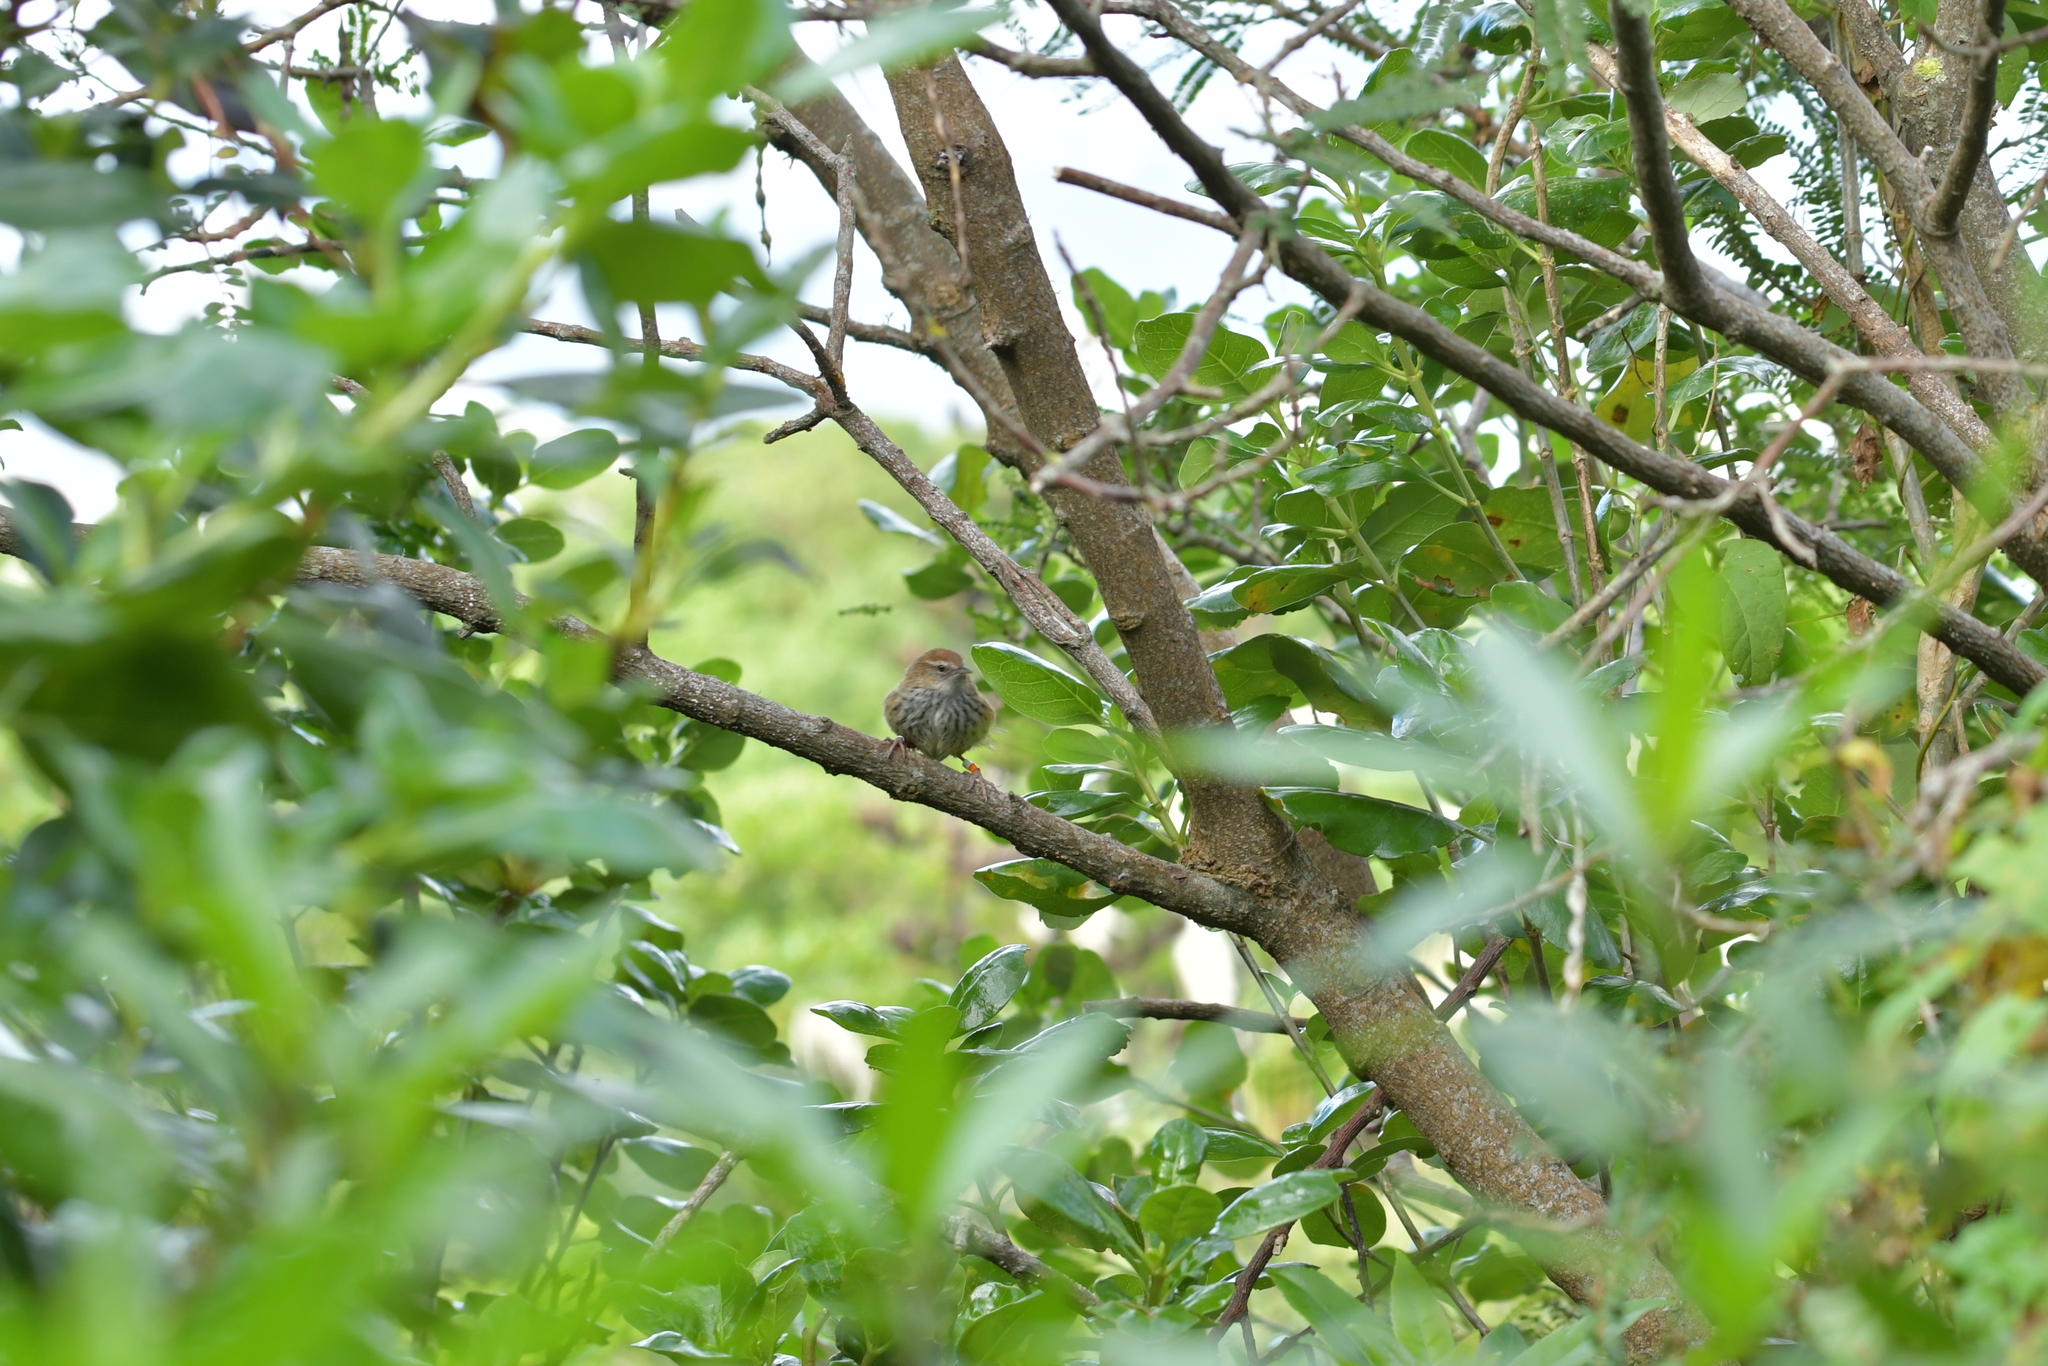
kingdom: Animalia
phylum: Chordata
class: Aves
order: Passeriformes
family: Locustellidae
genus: Megalurus
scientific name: Megalurus punctatus
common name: New zealand fernbird
